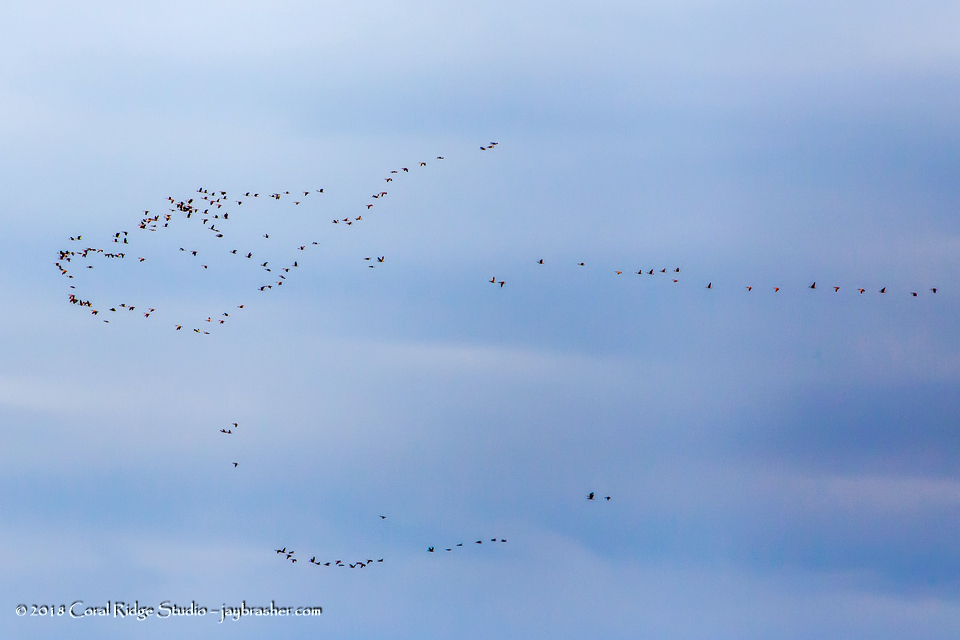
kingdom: Animalia
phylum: Chordata
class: Aves
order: Anseriformes
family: Anatidae
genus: Branta
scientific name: Branta canadensis
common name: Canada goose
